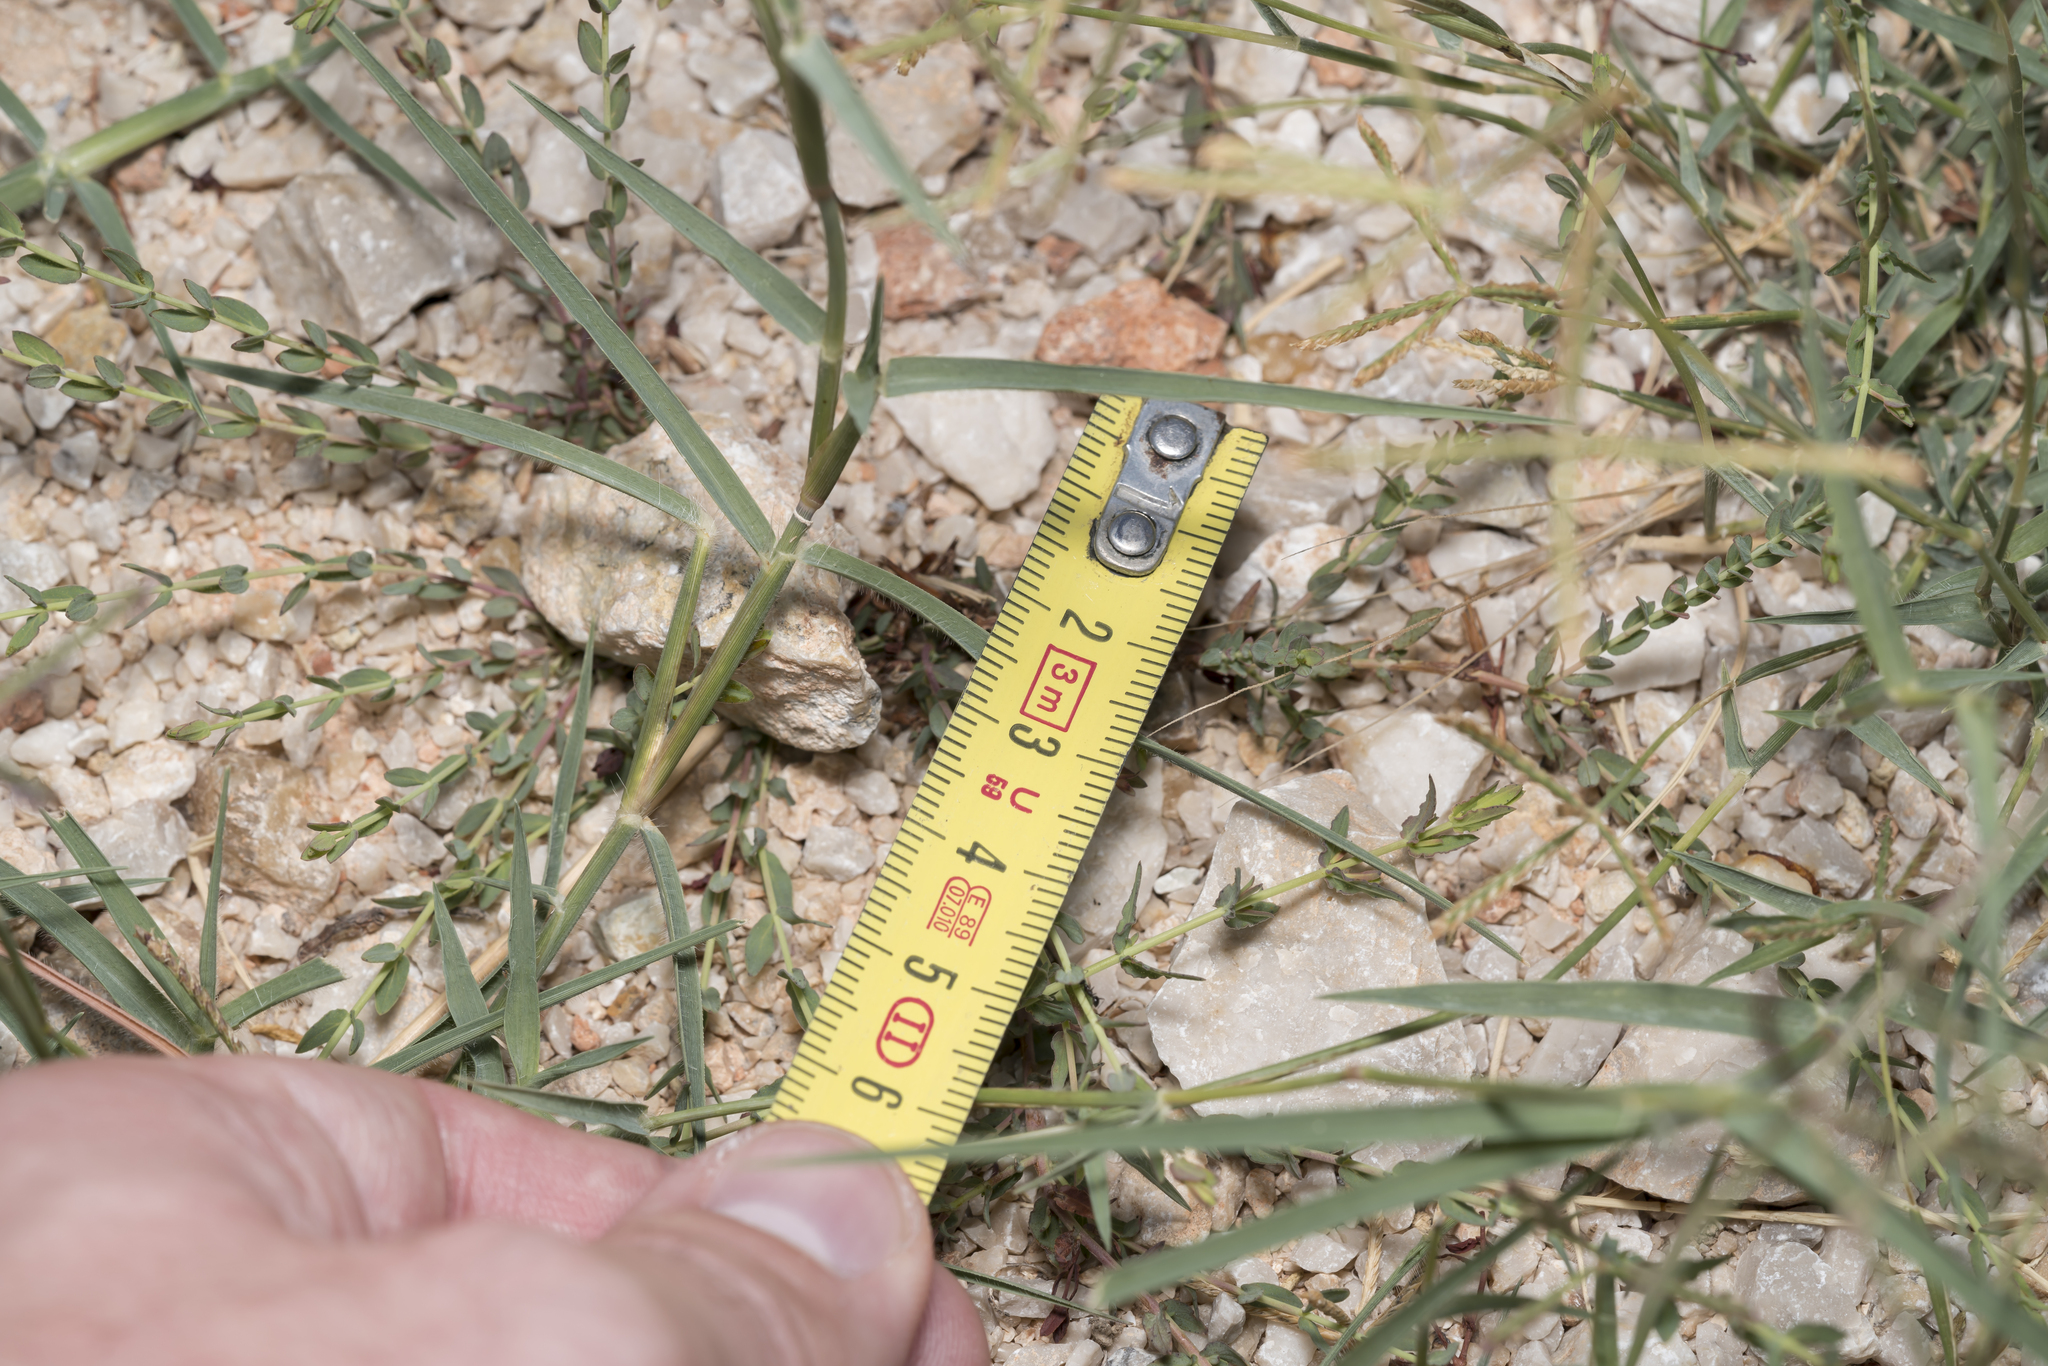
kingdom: Plantae
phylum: Tracheophyta
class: Liliopsida
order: Poales
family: Poaceae
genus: Cynodon
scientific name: Cynodon dactylon
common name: Bermuda grass
